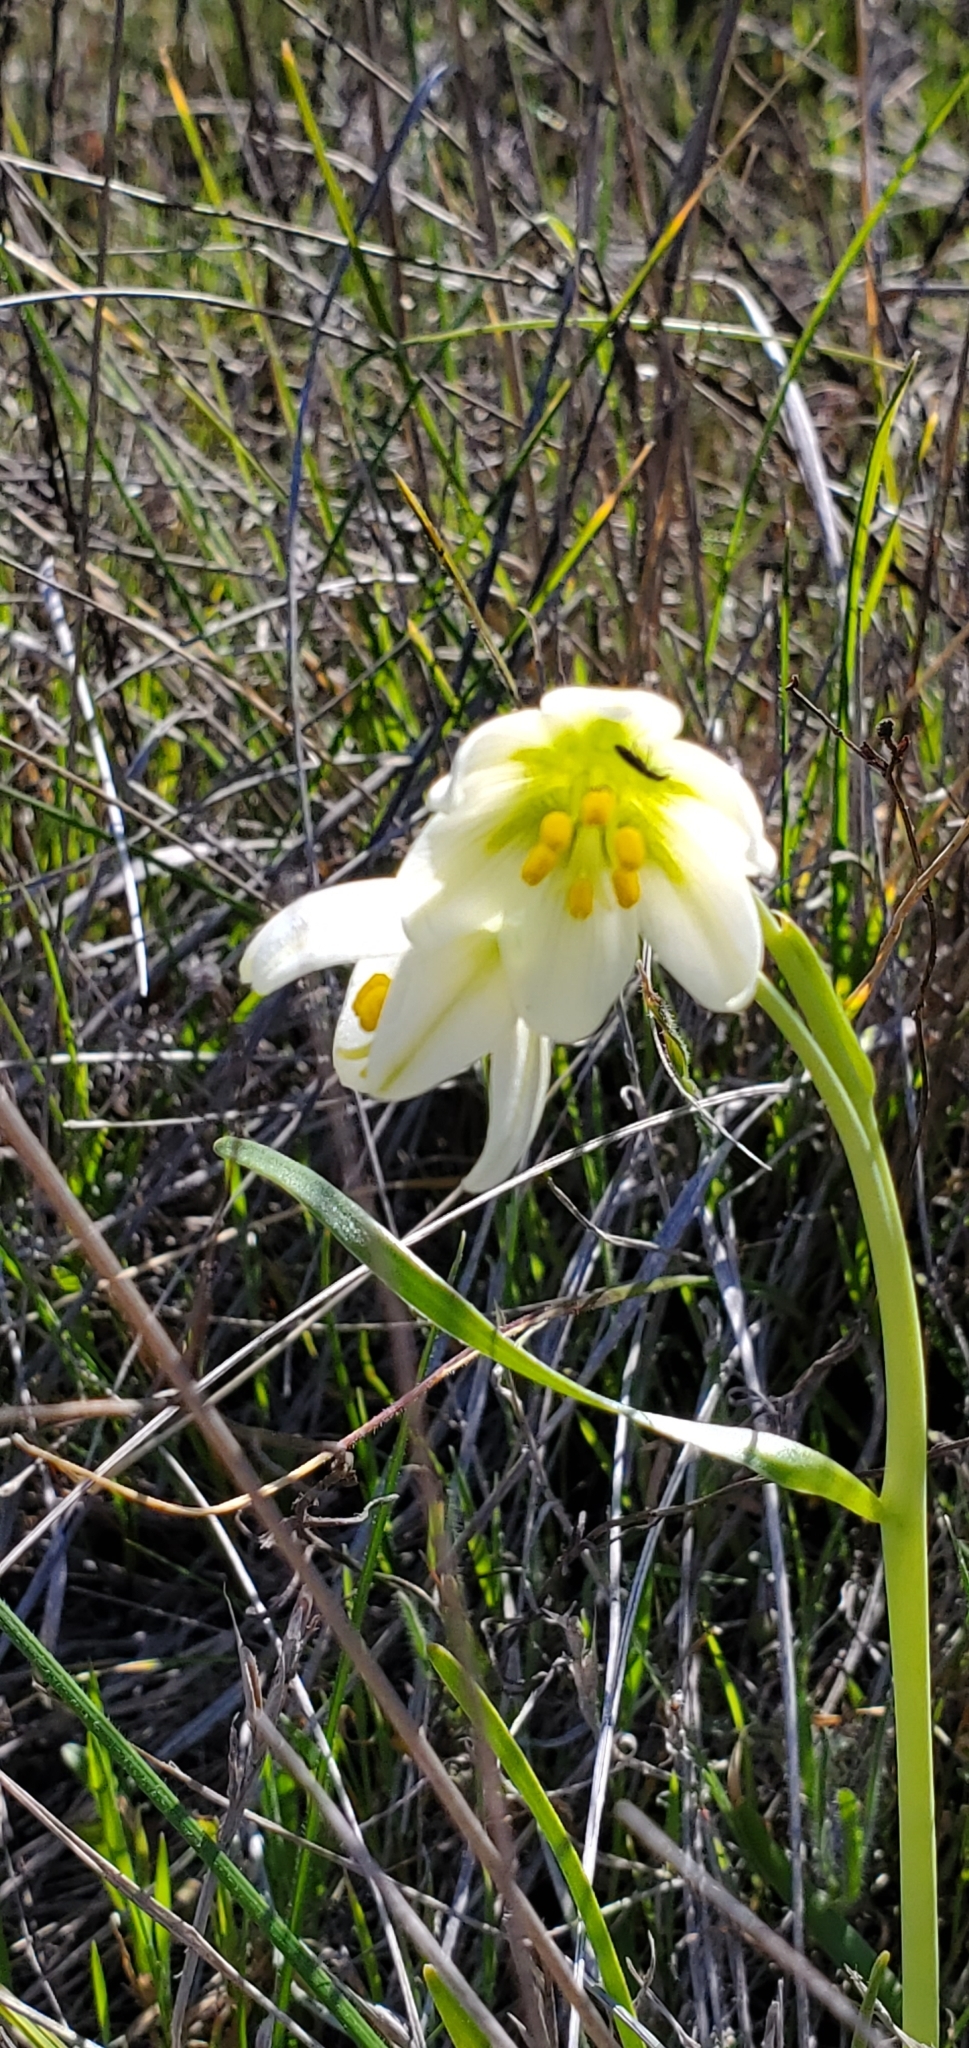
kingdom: Plantae
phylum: Tracheophyta
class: Liliopsida
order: Liliales
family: Liliaceae
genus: Fritillaria
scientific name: Fritillaria liliacea
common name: Fragrant fritillary
